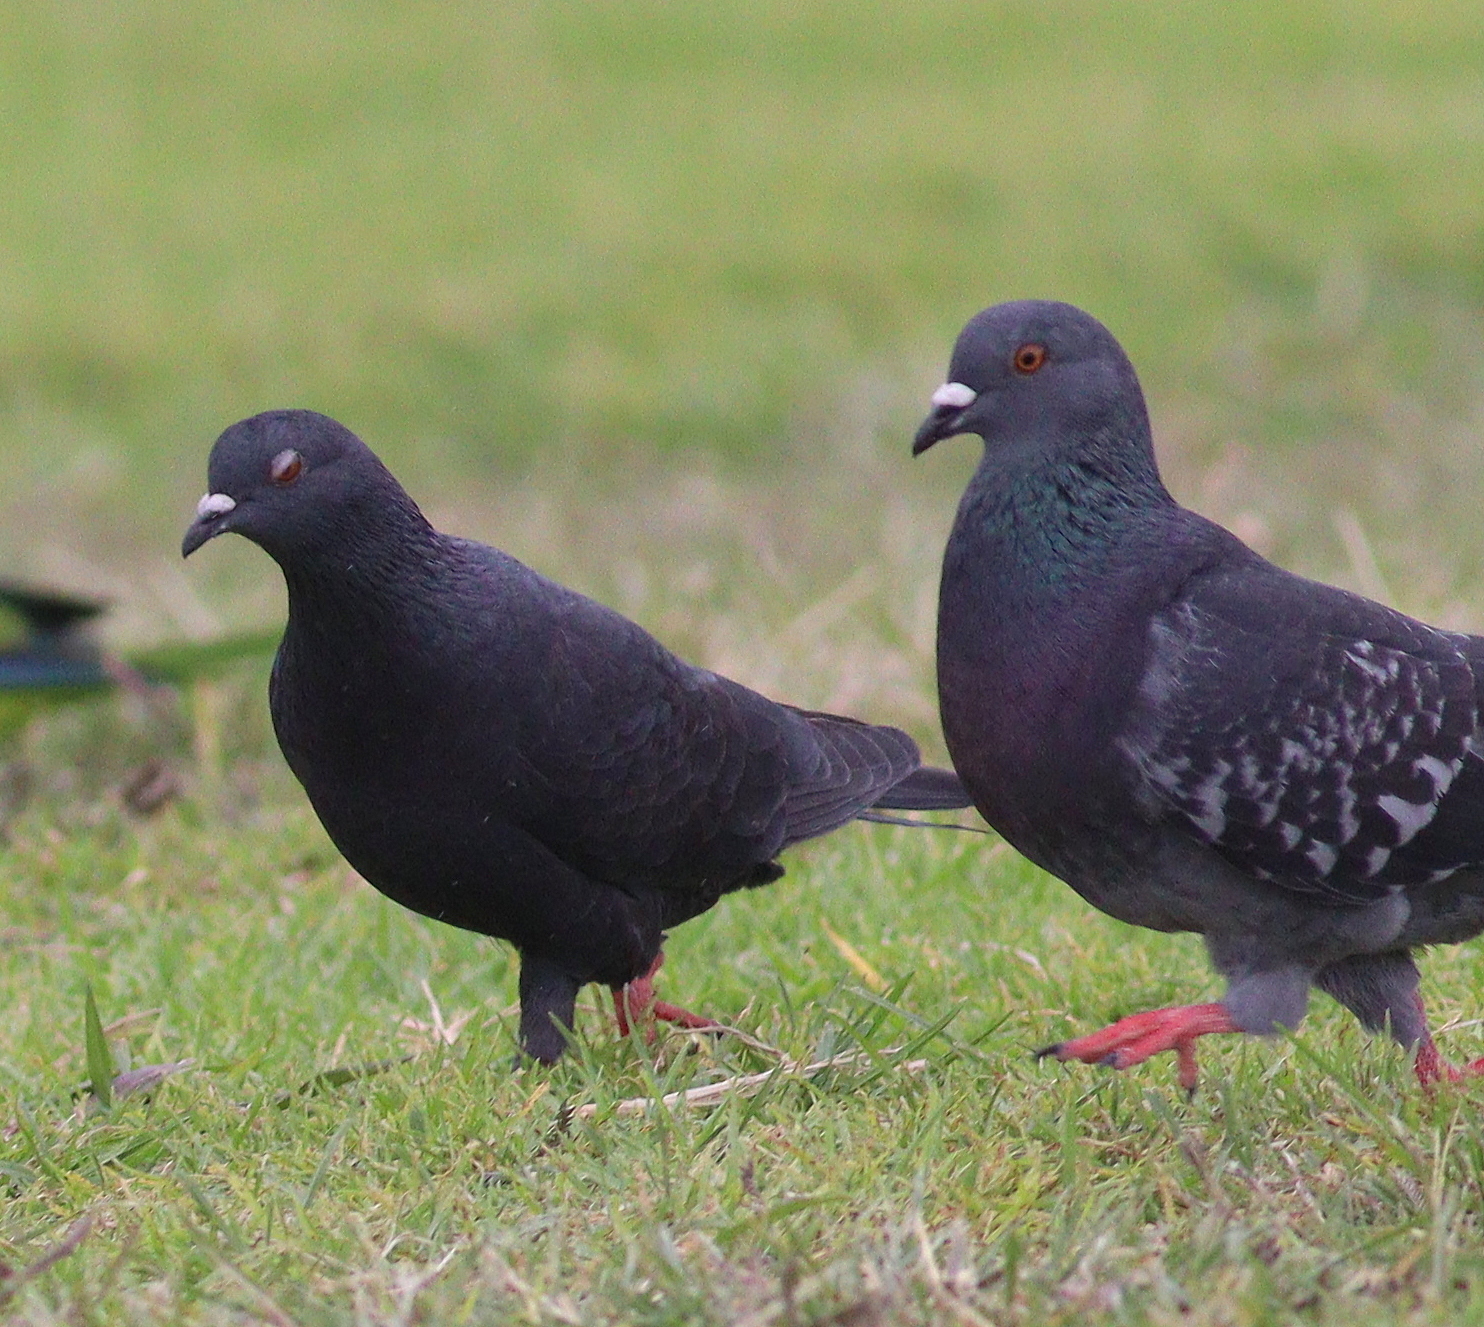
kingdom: Animalia
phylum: Chordata
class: Aves
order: Columbiformes
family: Columbidae
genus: Columba
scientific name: Columba livia
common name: Rock pigeon
